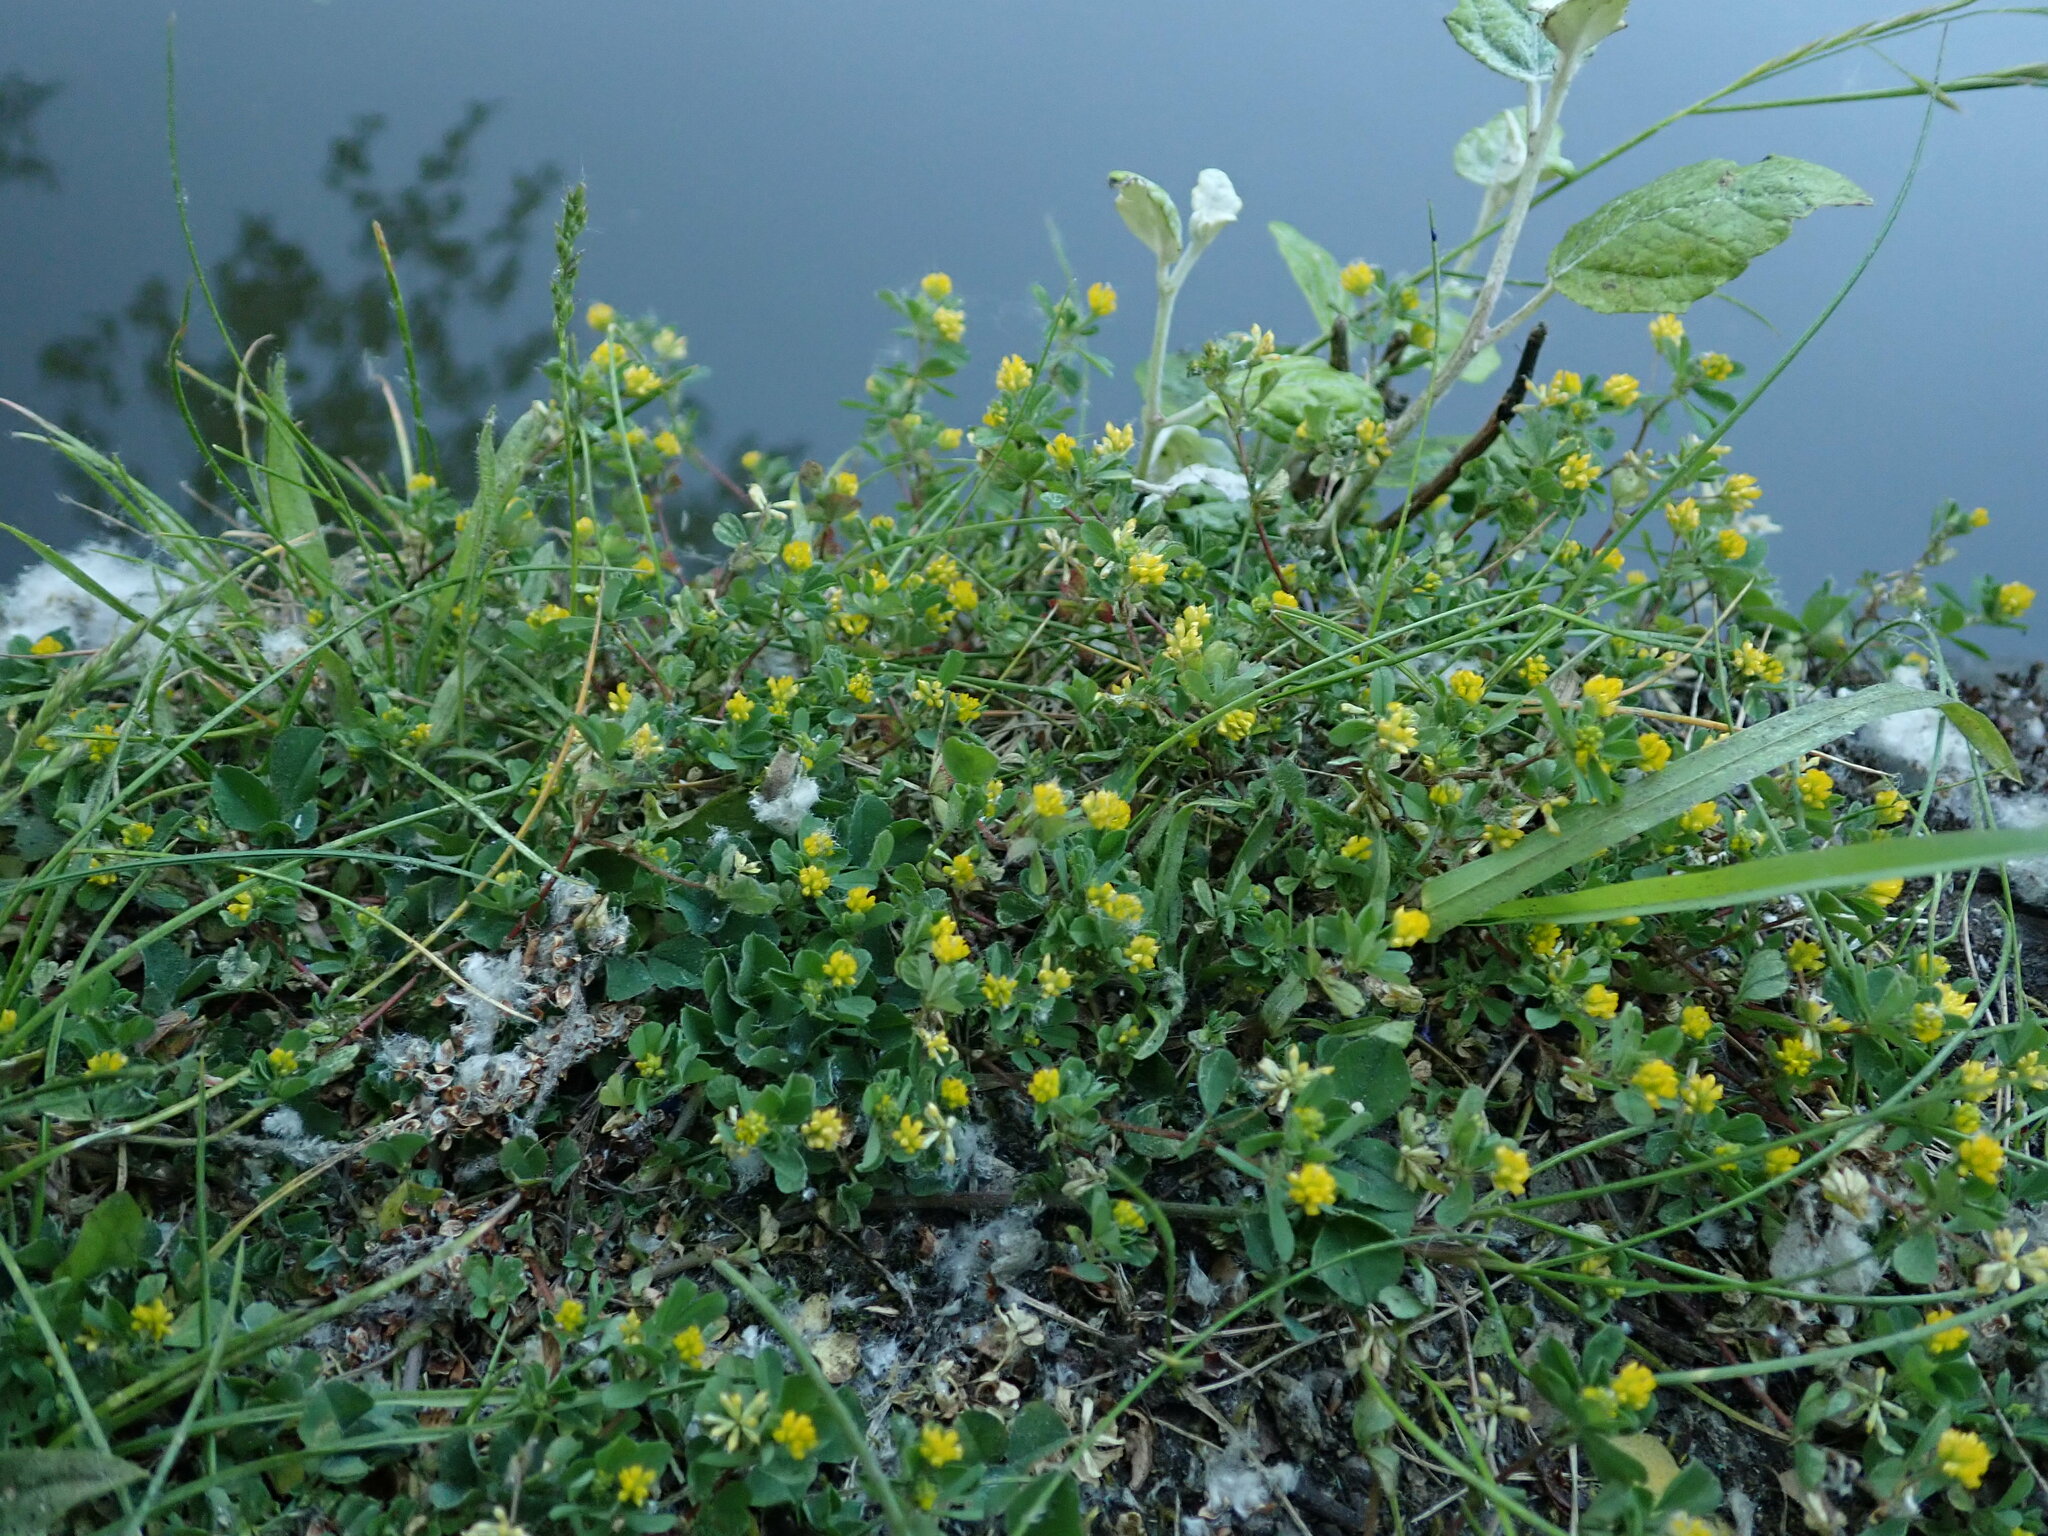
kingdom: Plantae
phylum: Tracheophyta
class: Magnoliopsida
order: Fabales
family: Fabaceae
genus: Trifolium
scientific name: Trifolium dubium
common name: Suckling clover
